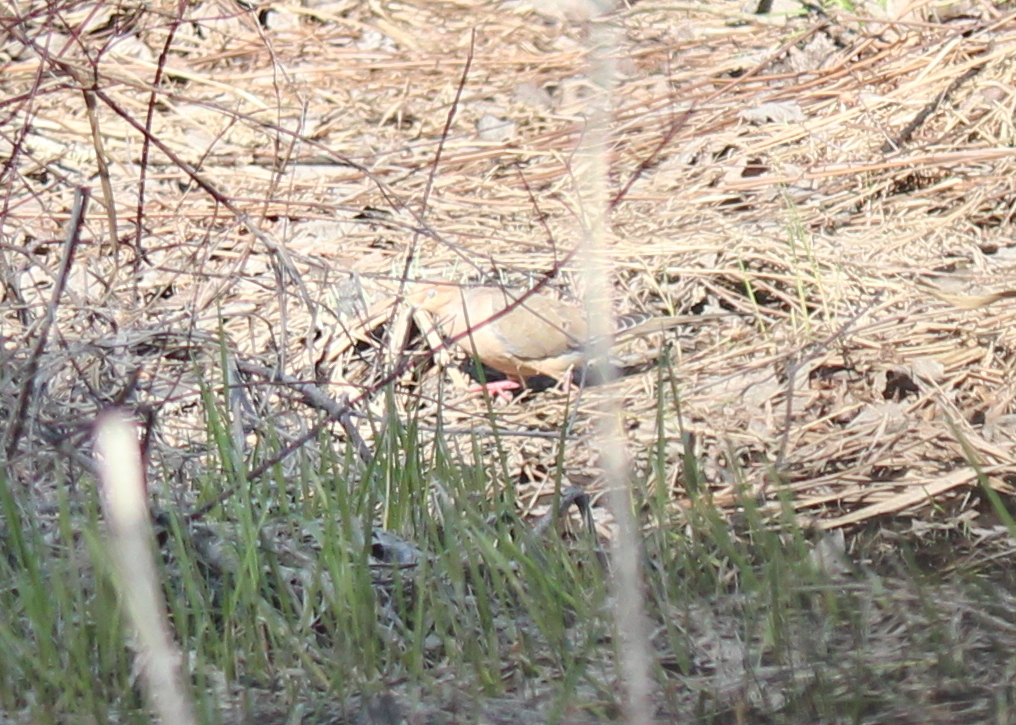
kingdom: Animalia
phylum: Chordata
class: Aves
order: Columbiformes
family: Columbidae
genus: Zenaida
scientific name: Zenaida macroura
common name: Mourning dove
